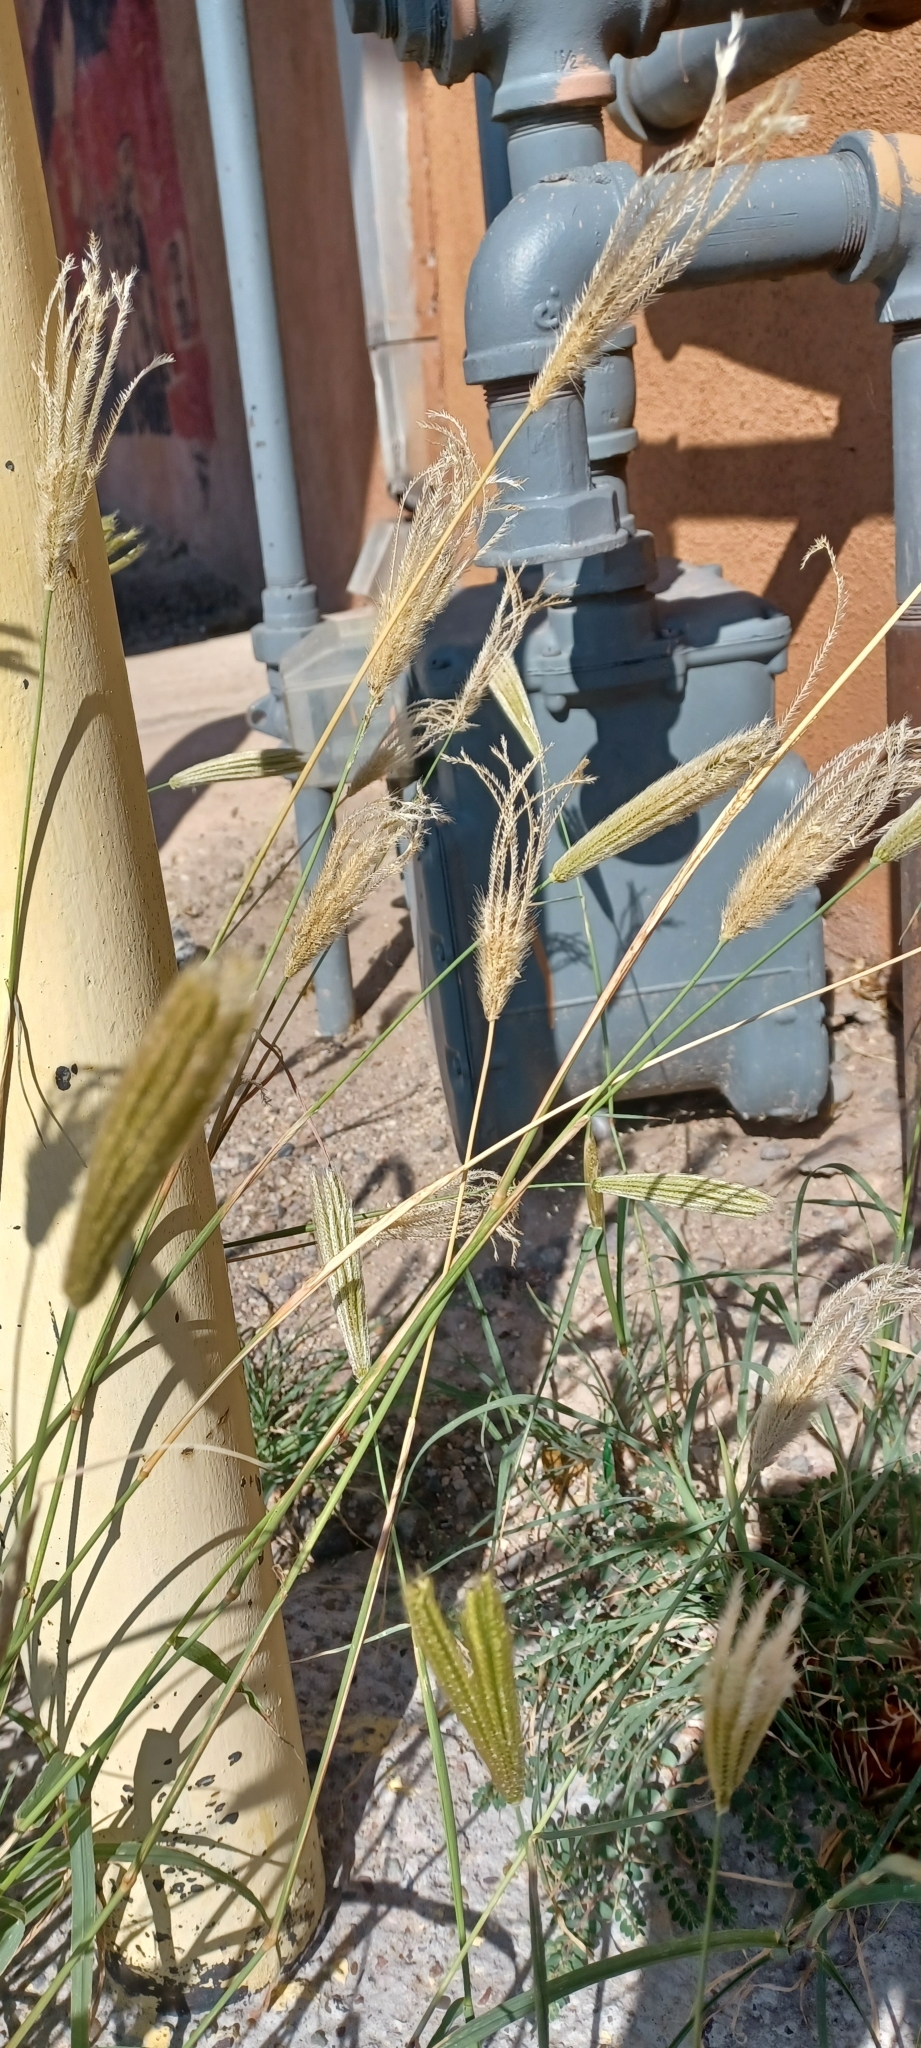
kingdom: Plantae
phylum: Tracheophyta
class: Liliopsida
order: Poales
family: Poaceae
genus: Chloris
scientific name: Chloris virgata
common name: Feathery rhodes-grass
